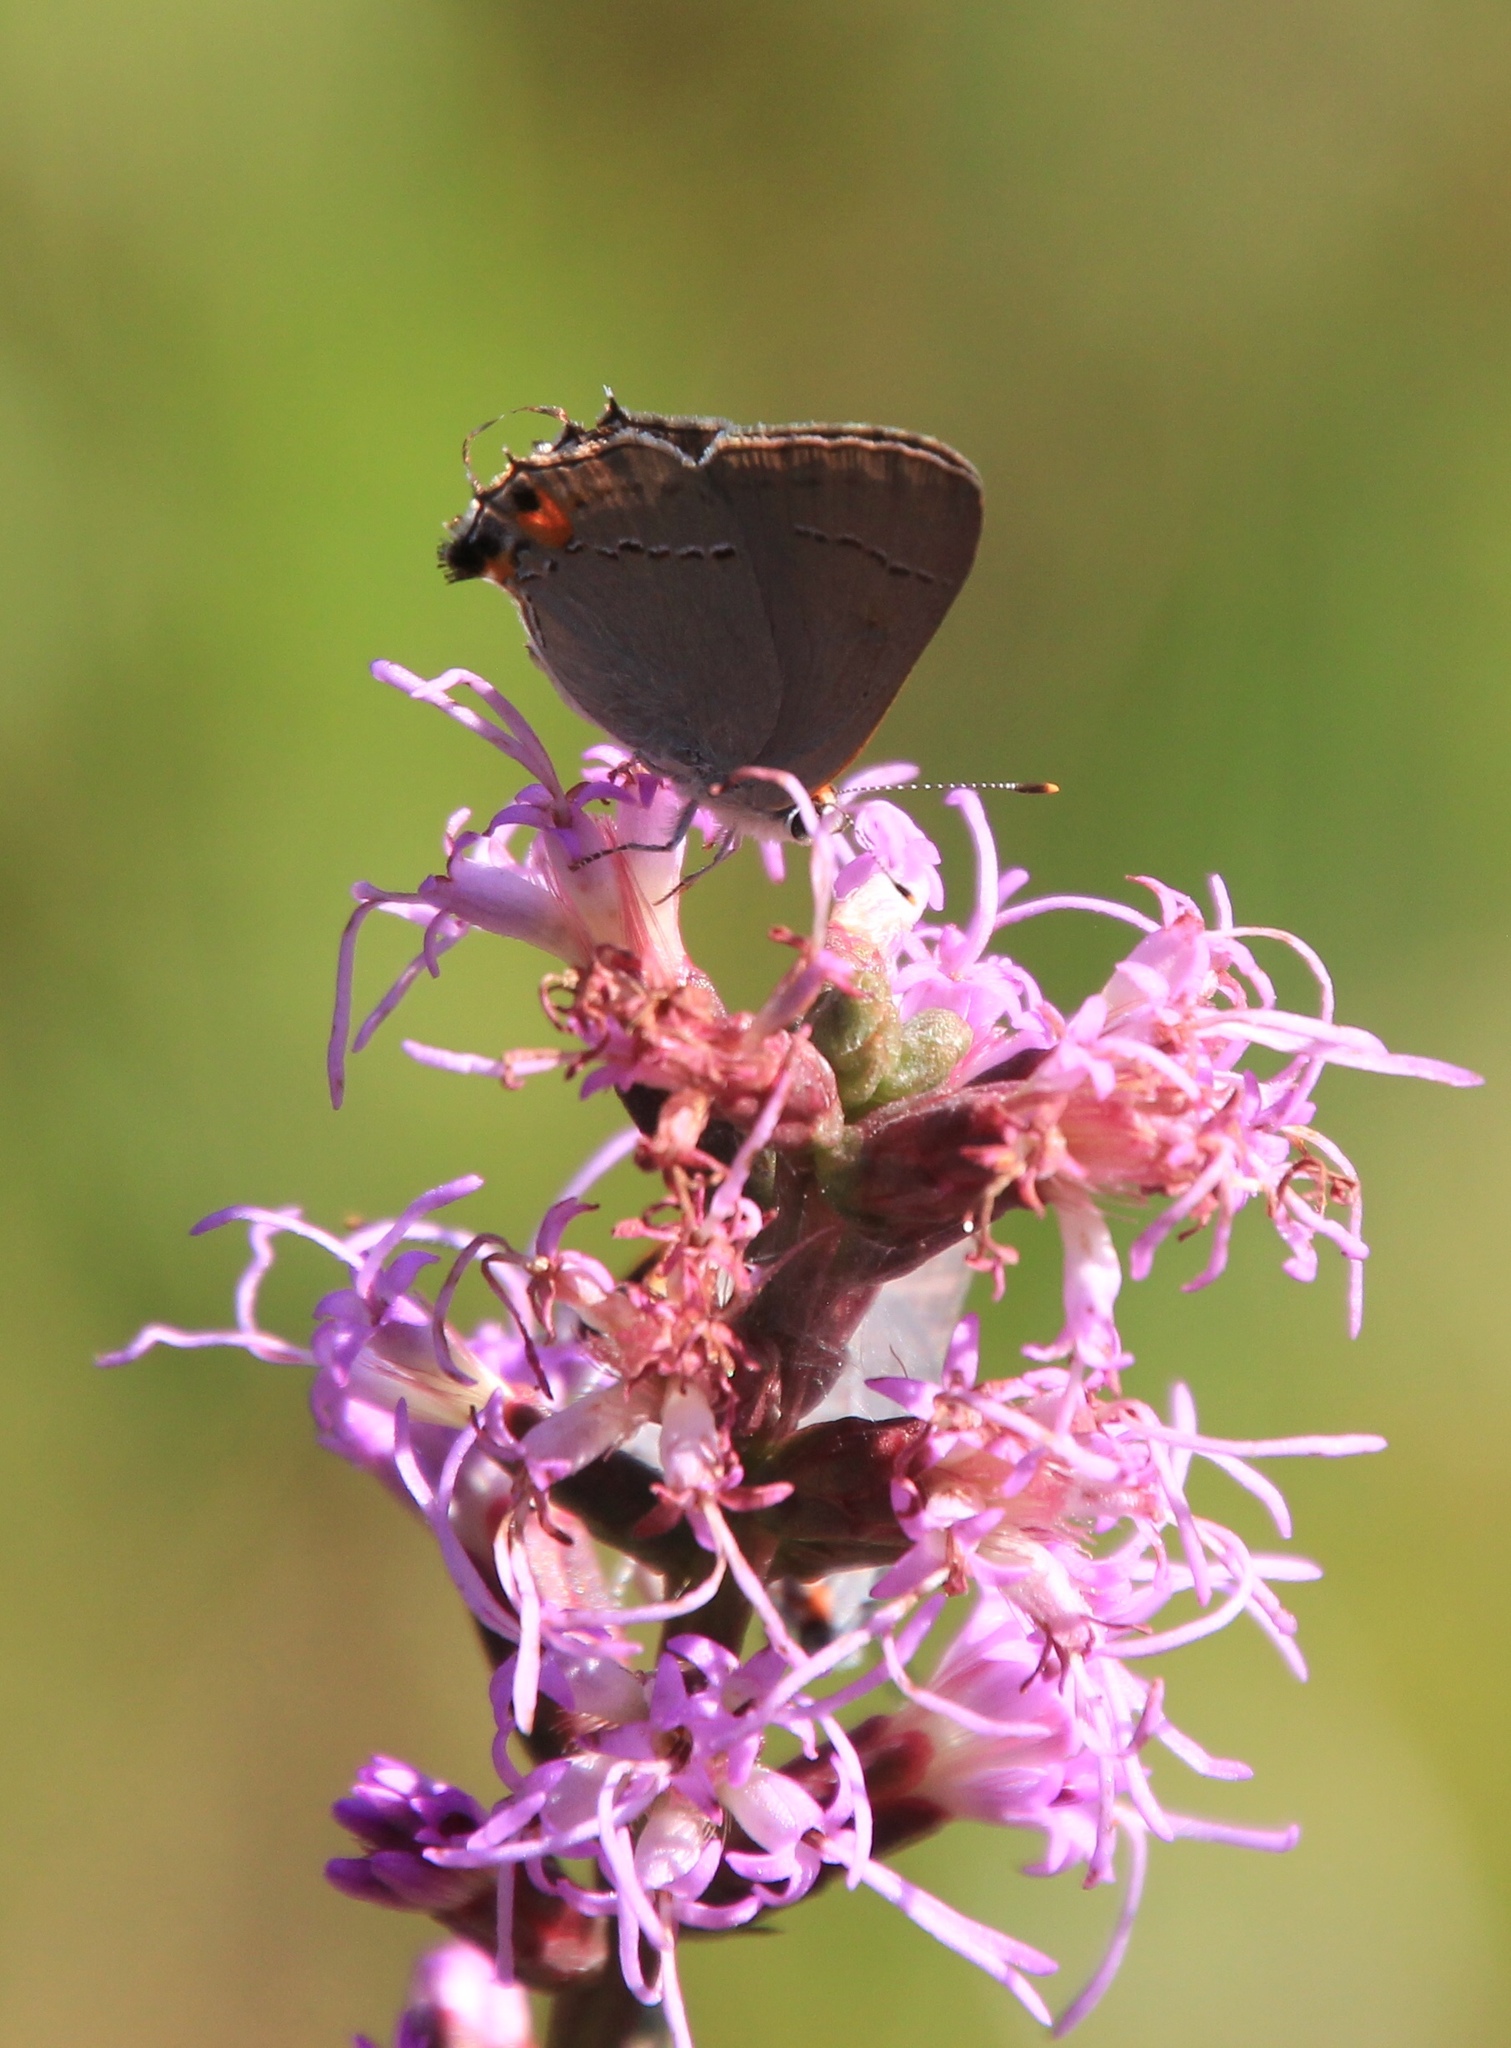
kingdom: Animalia
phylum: Arthropoda
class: Insecta
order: Lepidoptera
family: Lycaenidae
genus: Strymon
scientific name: Strymon melinus
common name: Gray hairstreak
